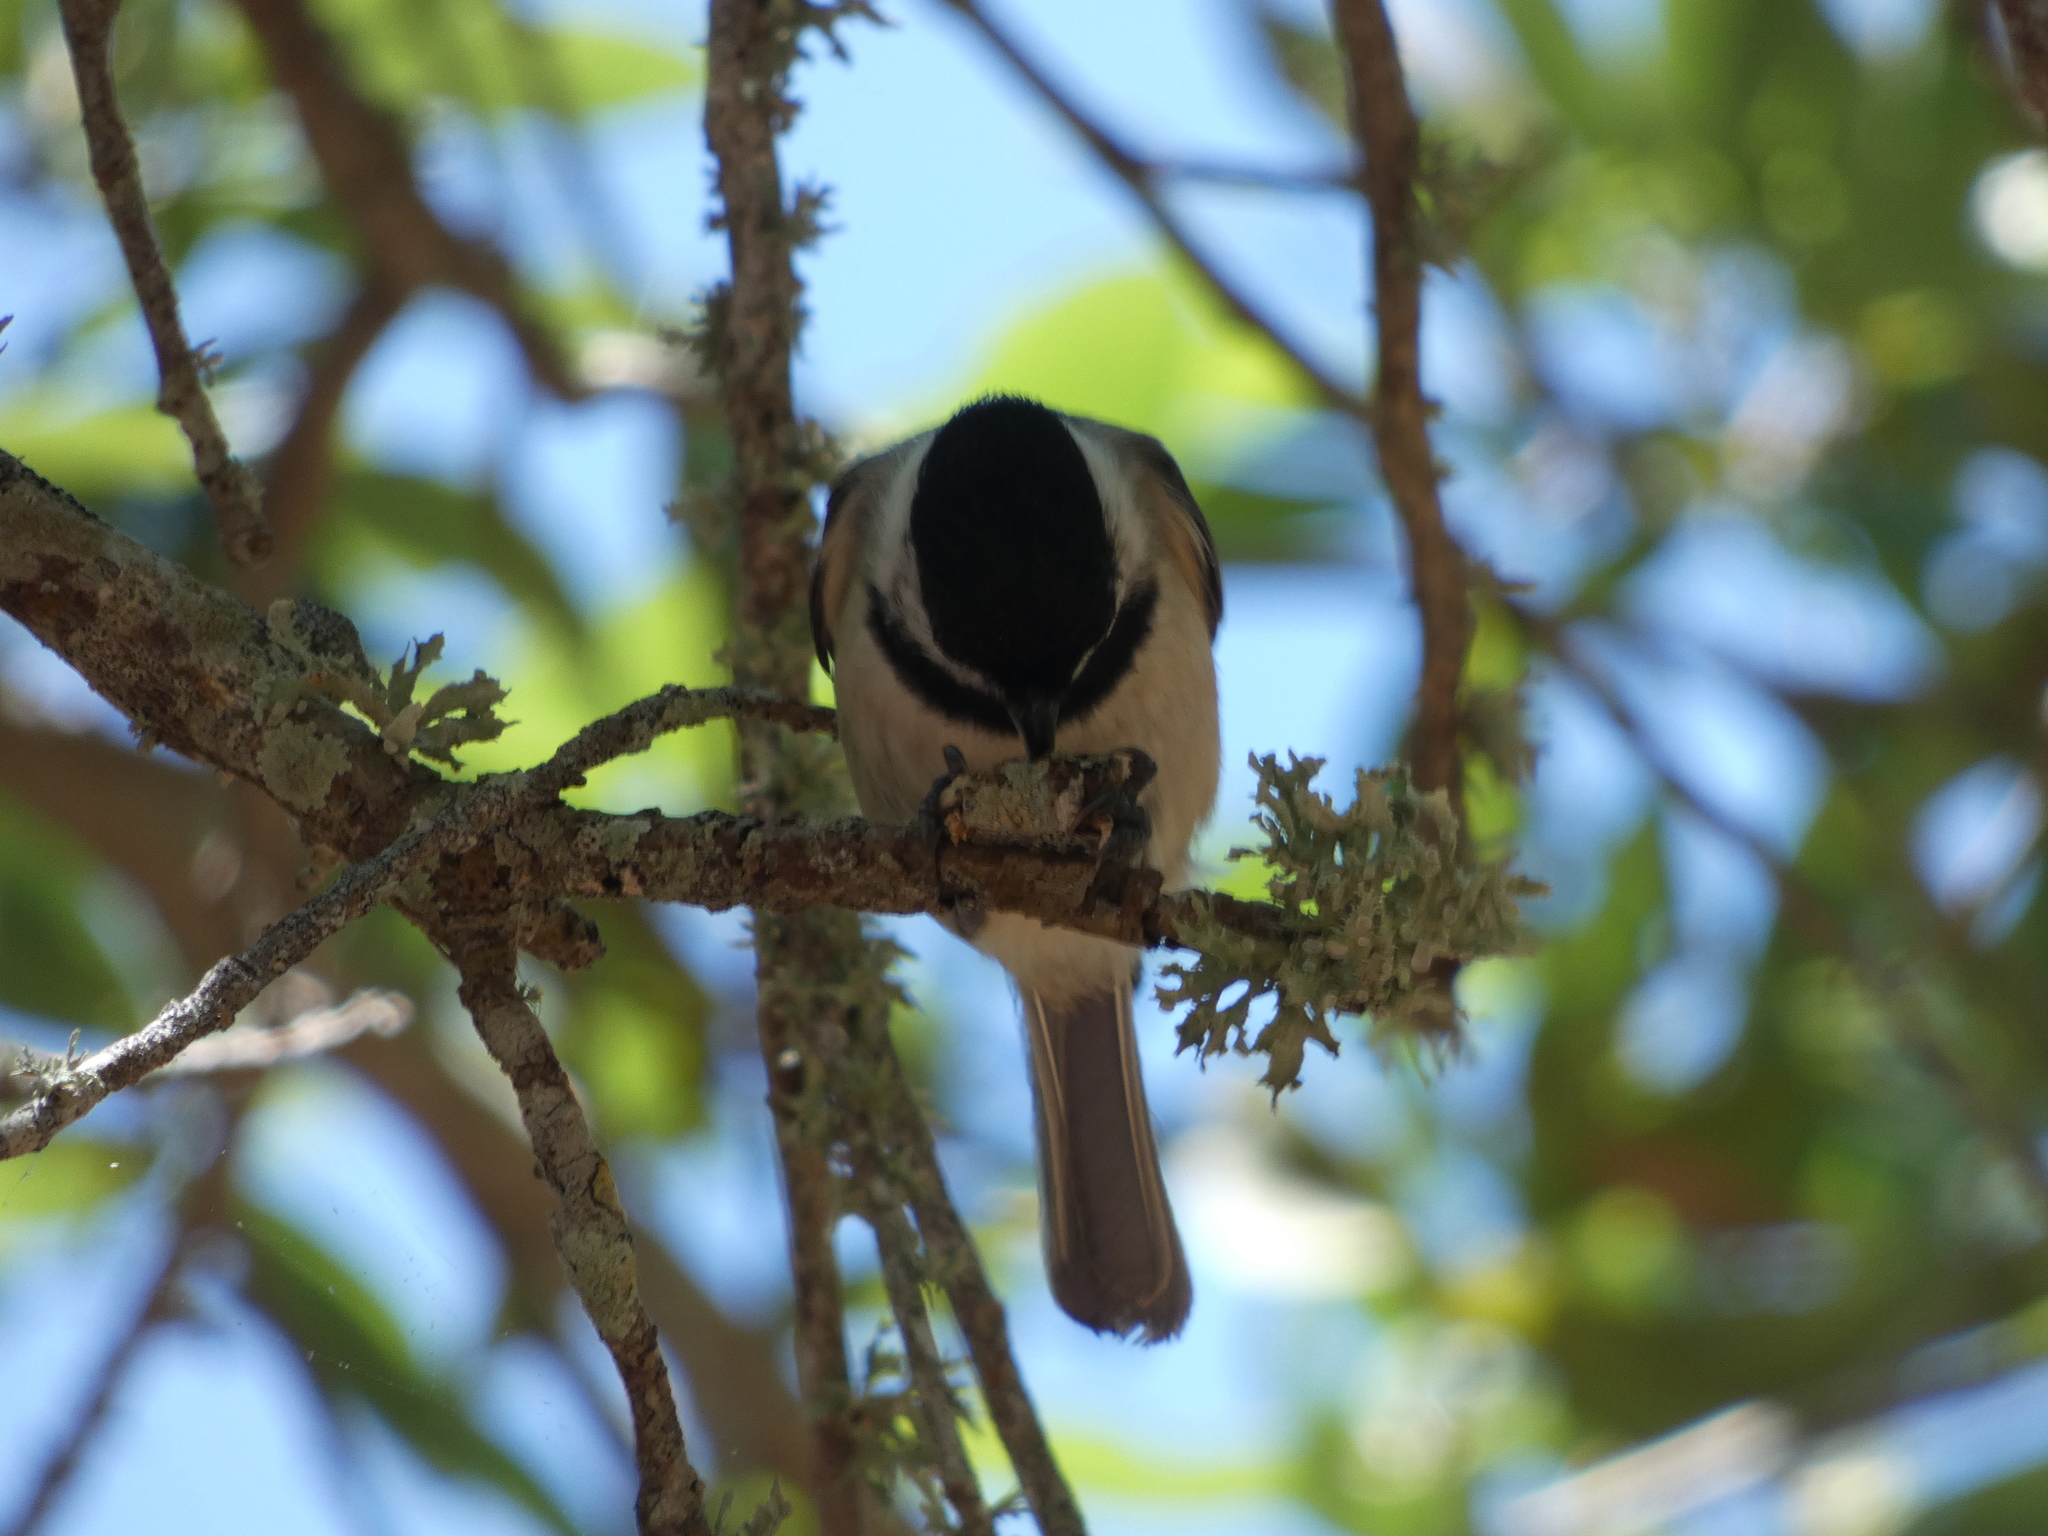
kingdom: Animalia
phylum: Chordata
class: Aves
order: Passeriformes
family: Paridae
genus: Poecile
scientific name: Poecile carolinensis
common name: Carolina chickadee
